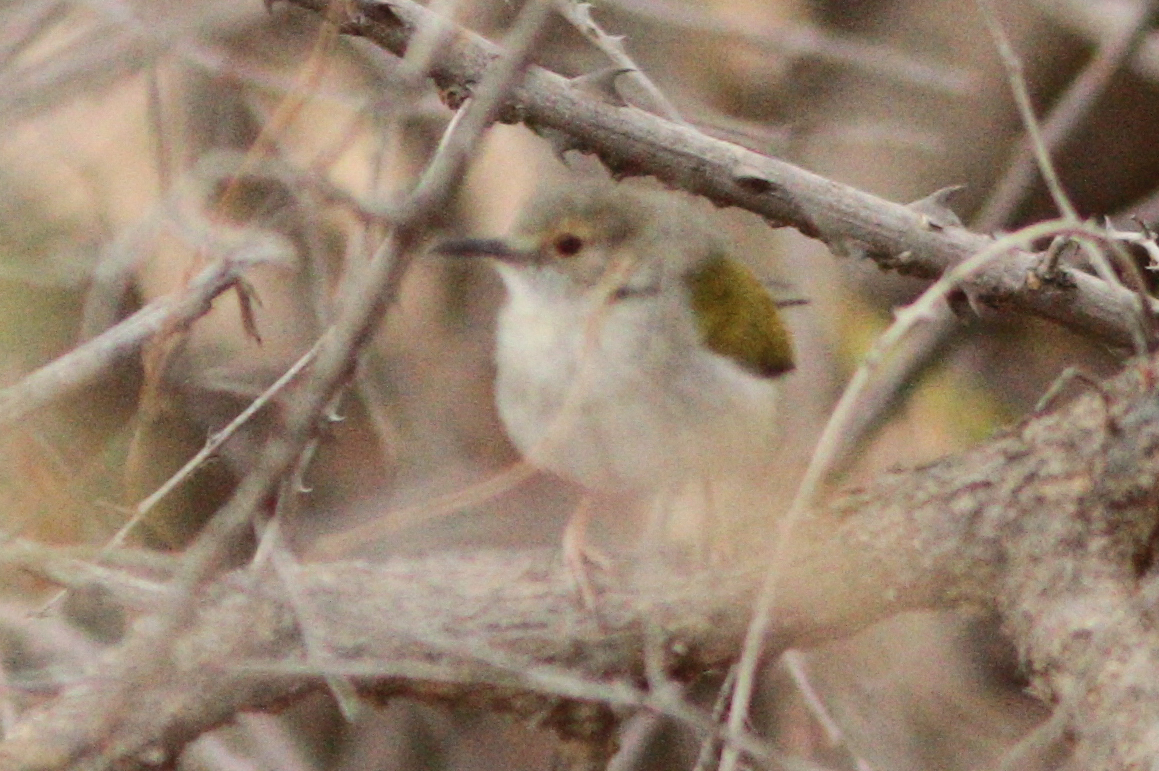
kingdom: Animalia
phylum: Chordata
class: Aves
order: Passeriformes
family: Cisticolidae
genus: Camaroptera
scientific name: Camaroptera brachyura
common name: Green-backed camaroptera
